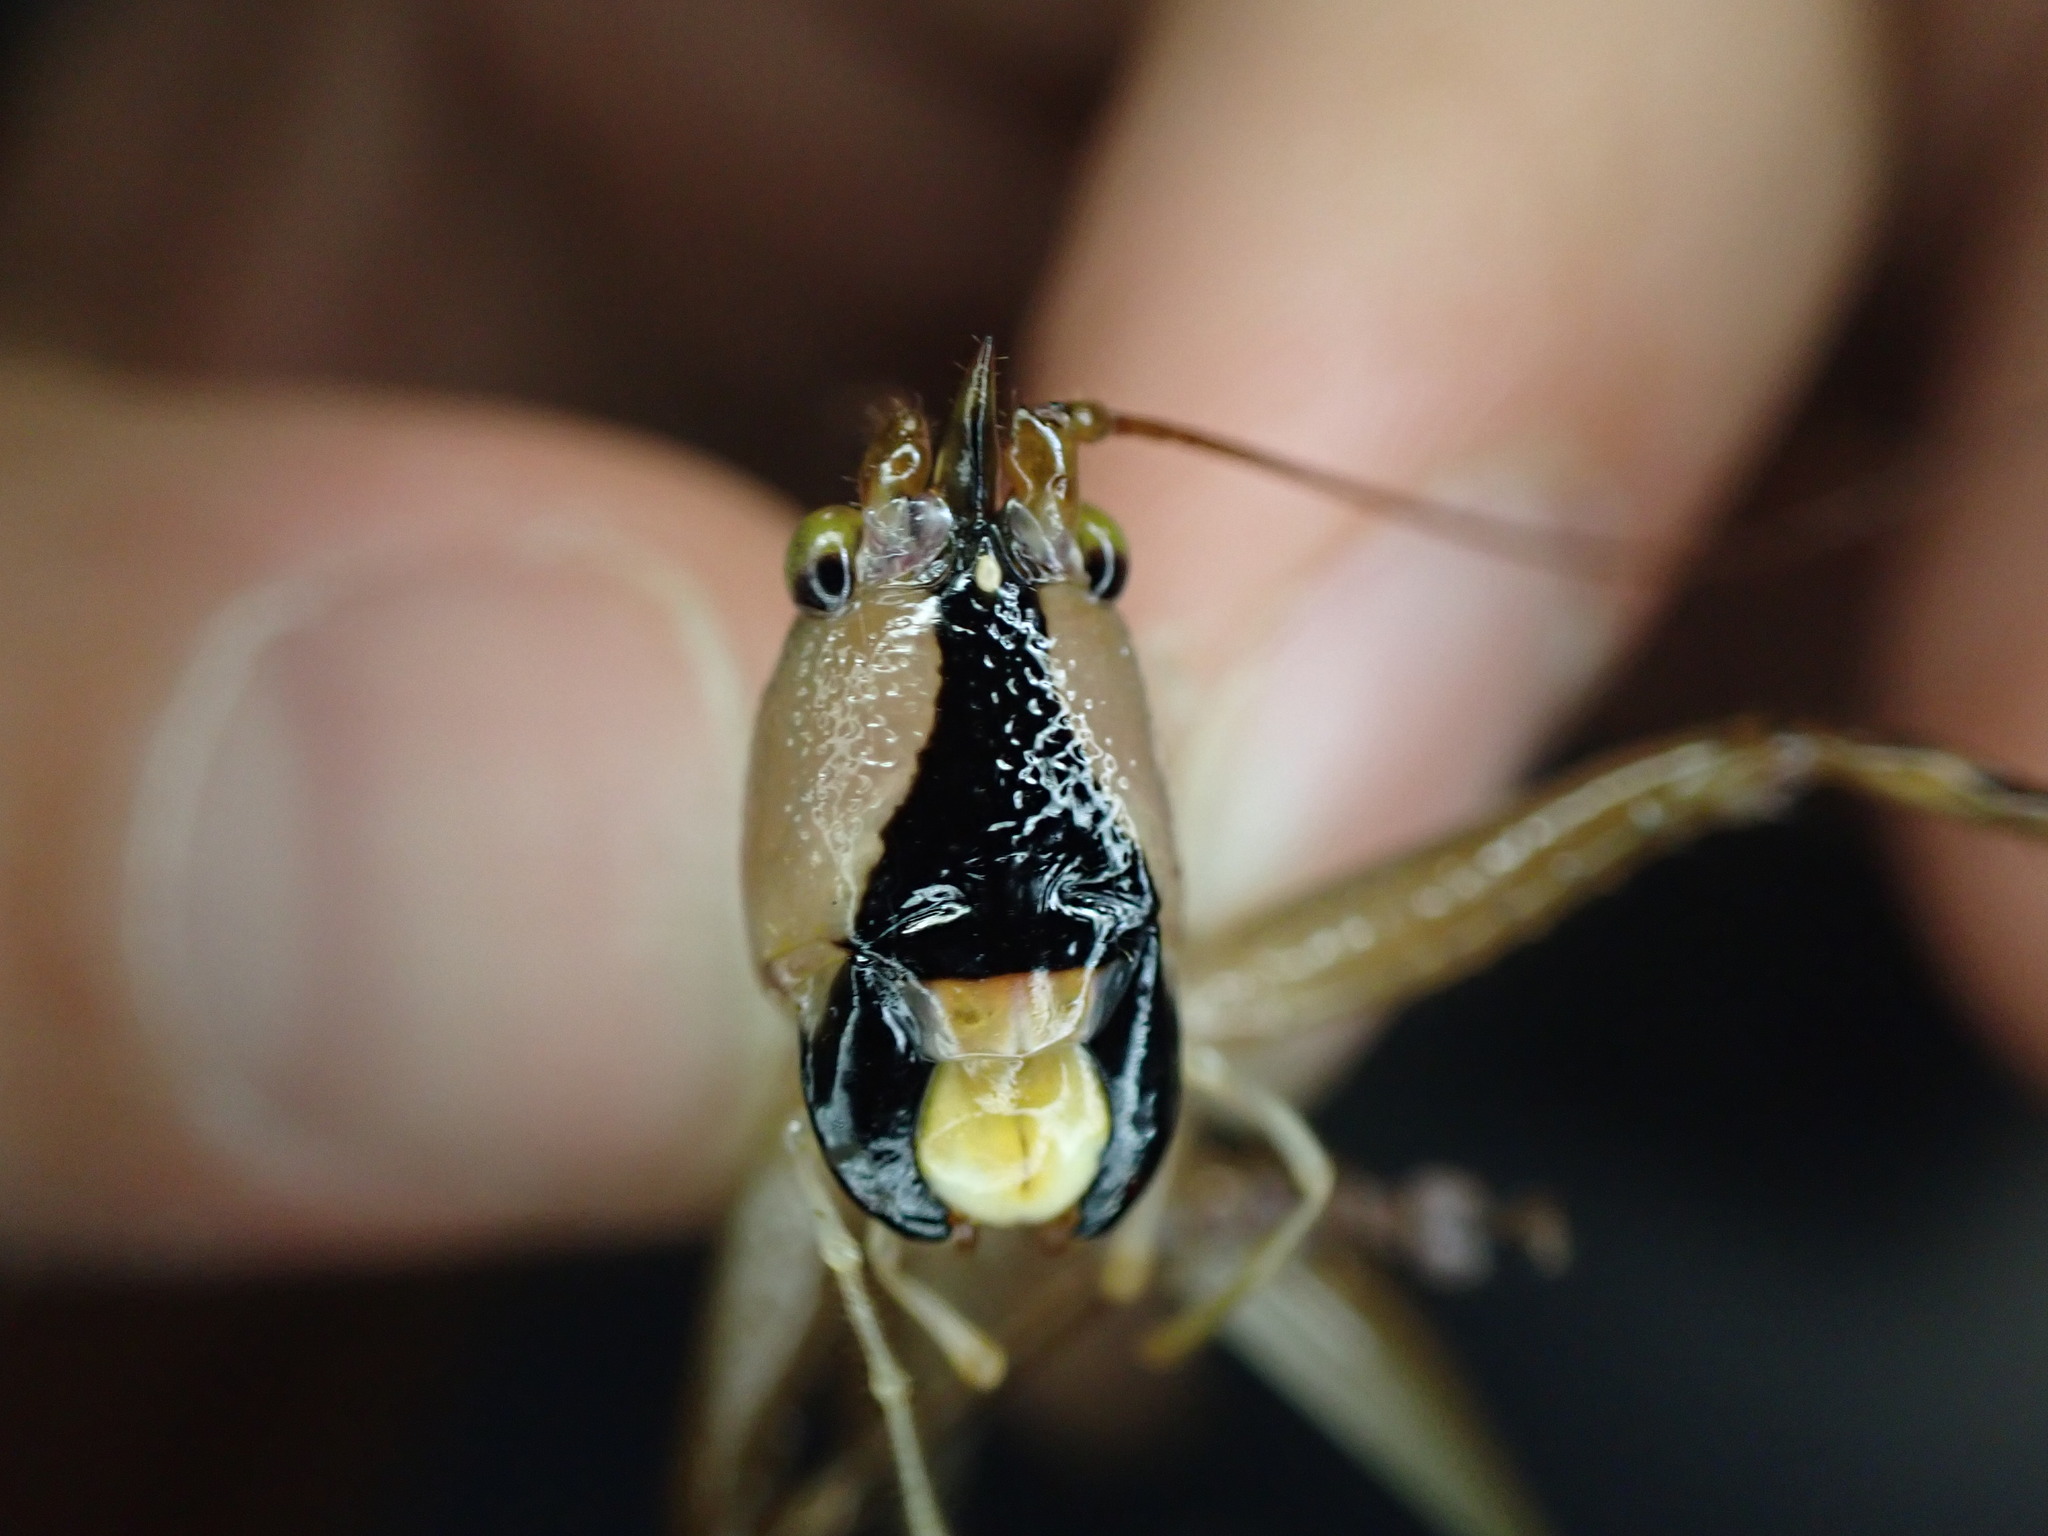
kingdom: Animalia
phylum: Arthropoda
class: Insecta
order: Orthoptera
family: Tettigoniidae
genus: Barbaragraecia
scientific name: Barbaragraecia richardsoni
